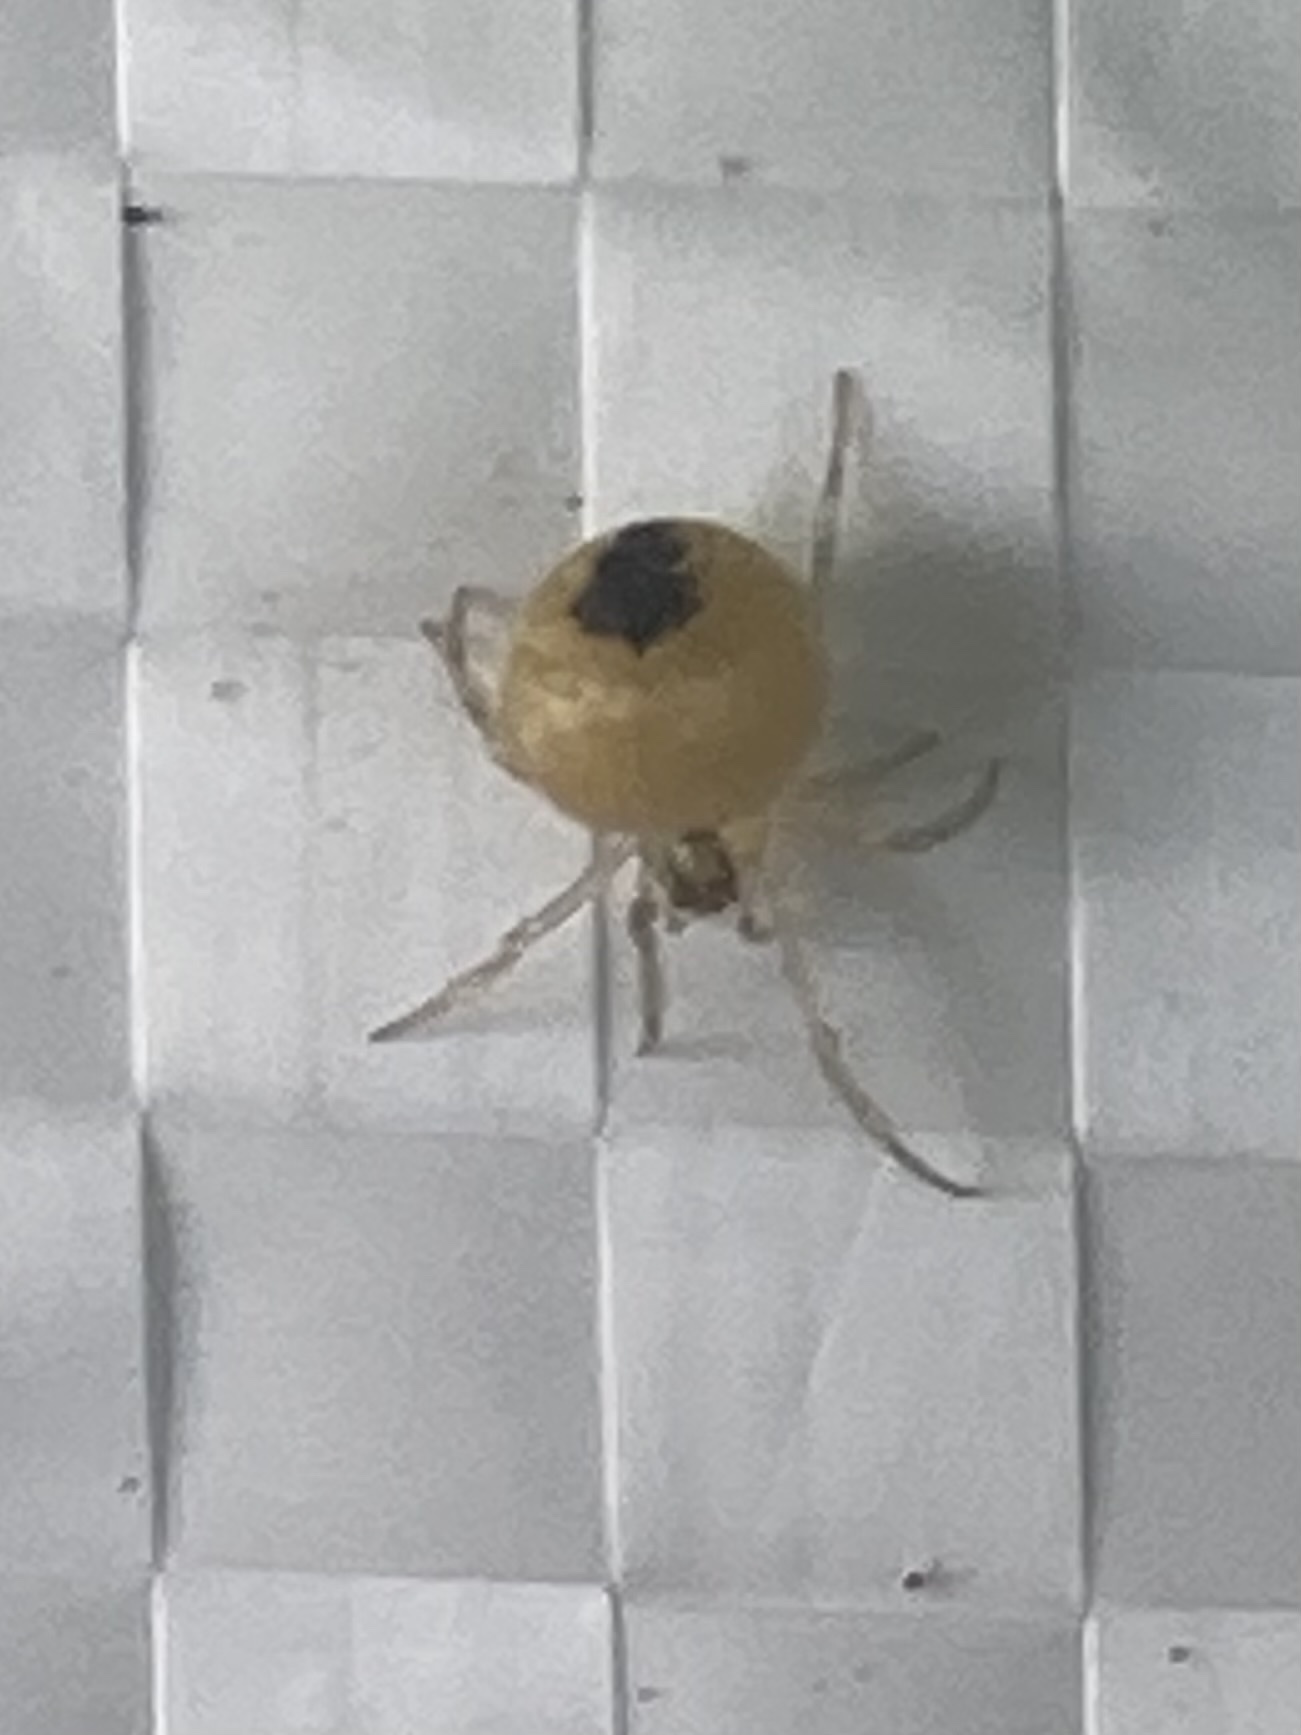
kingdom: Animalia
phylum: Arthropoda
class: Arachnida
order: Araneae
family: Theridiidae
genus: Paidiscura
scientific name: Paidiscura pallens
